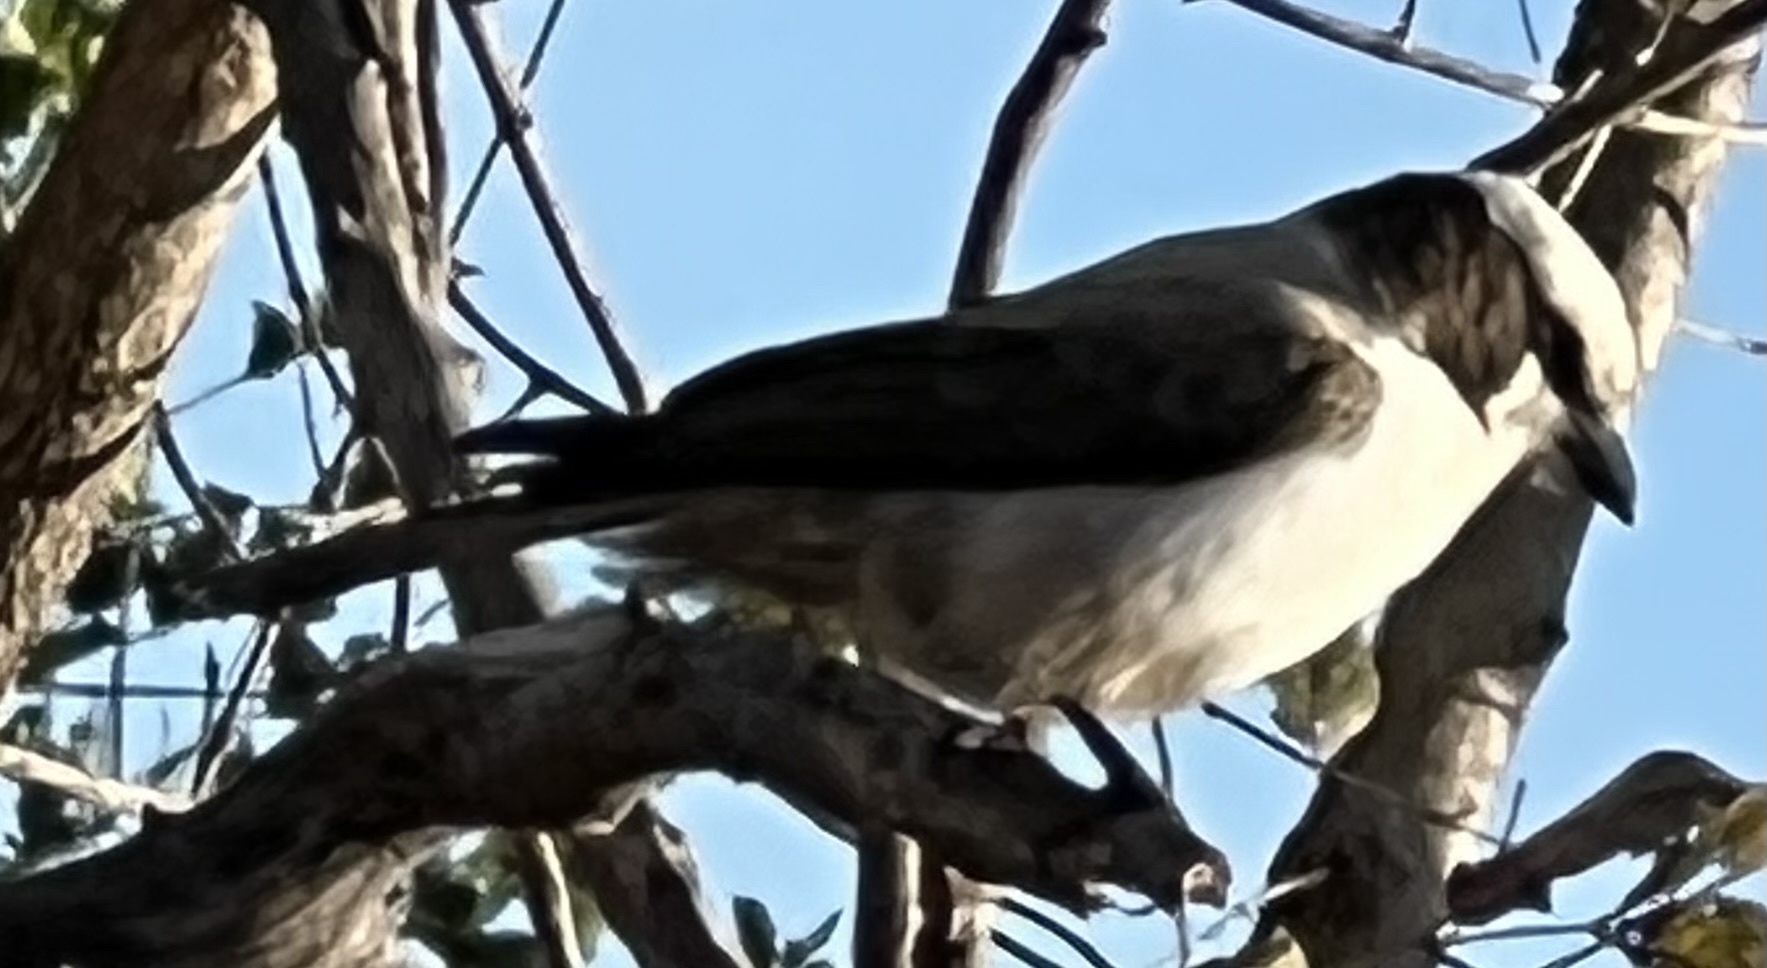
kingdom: Animalia
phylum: Chordata
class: Aves
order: Passeriformes
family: Laniidae
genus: Eurocephalus
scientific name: Eurocephalus anguitimens
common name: Southern white-crowned shrike
